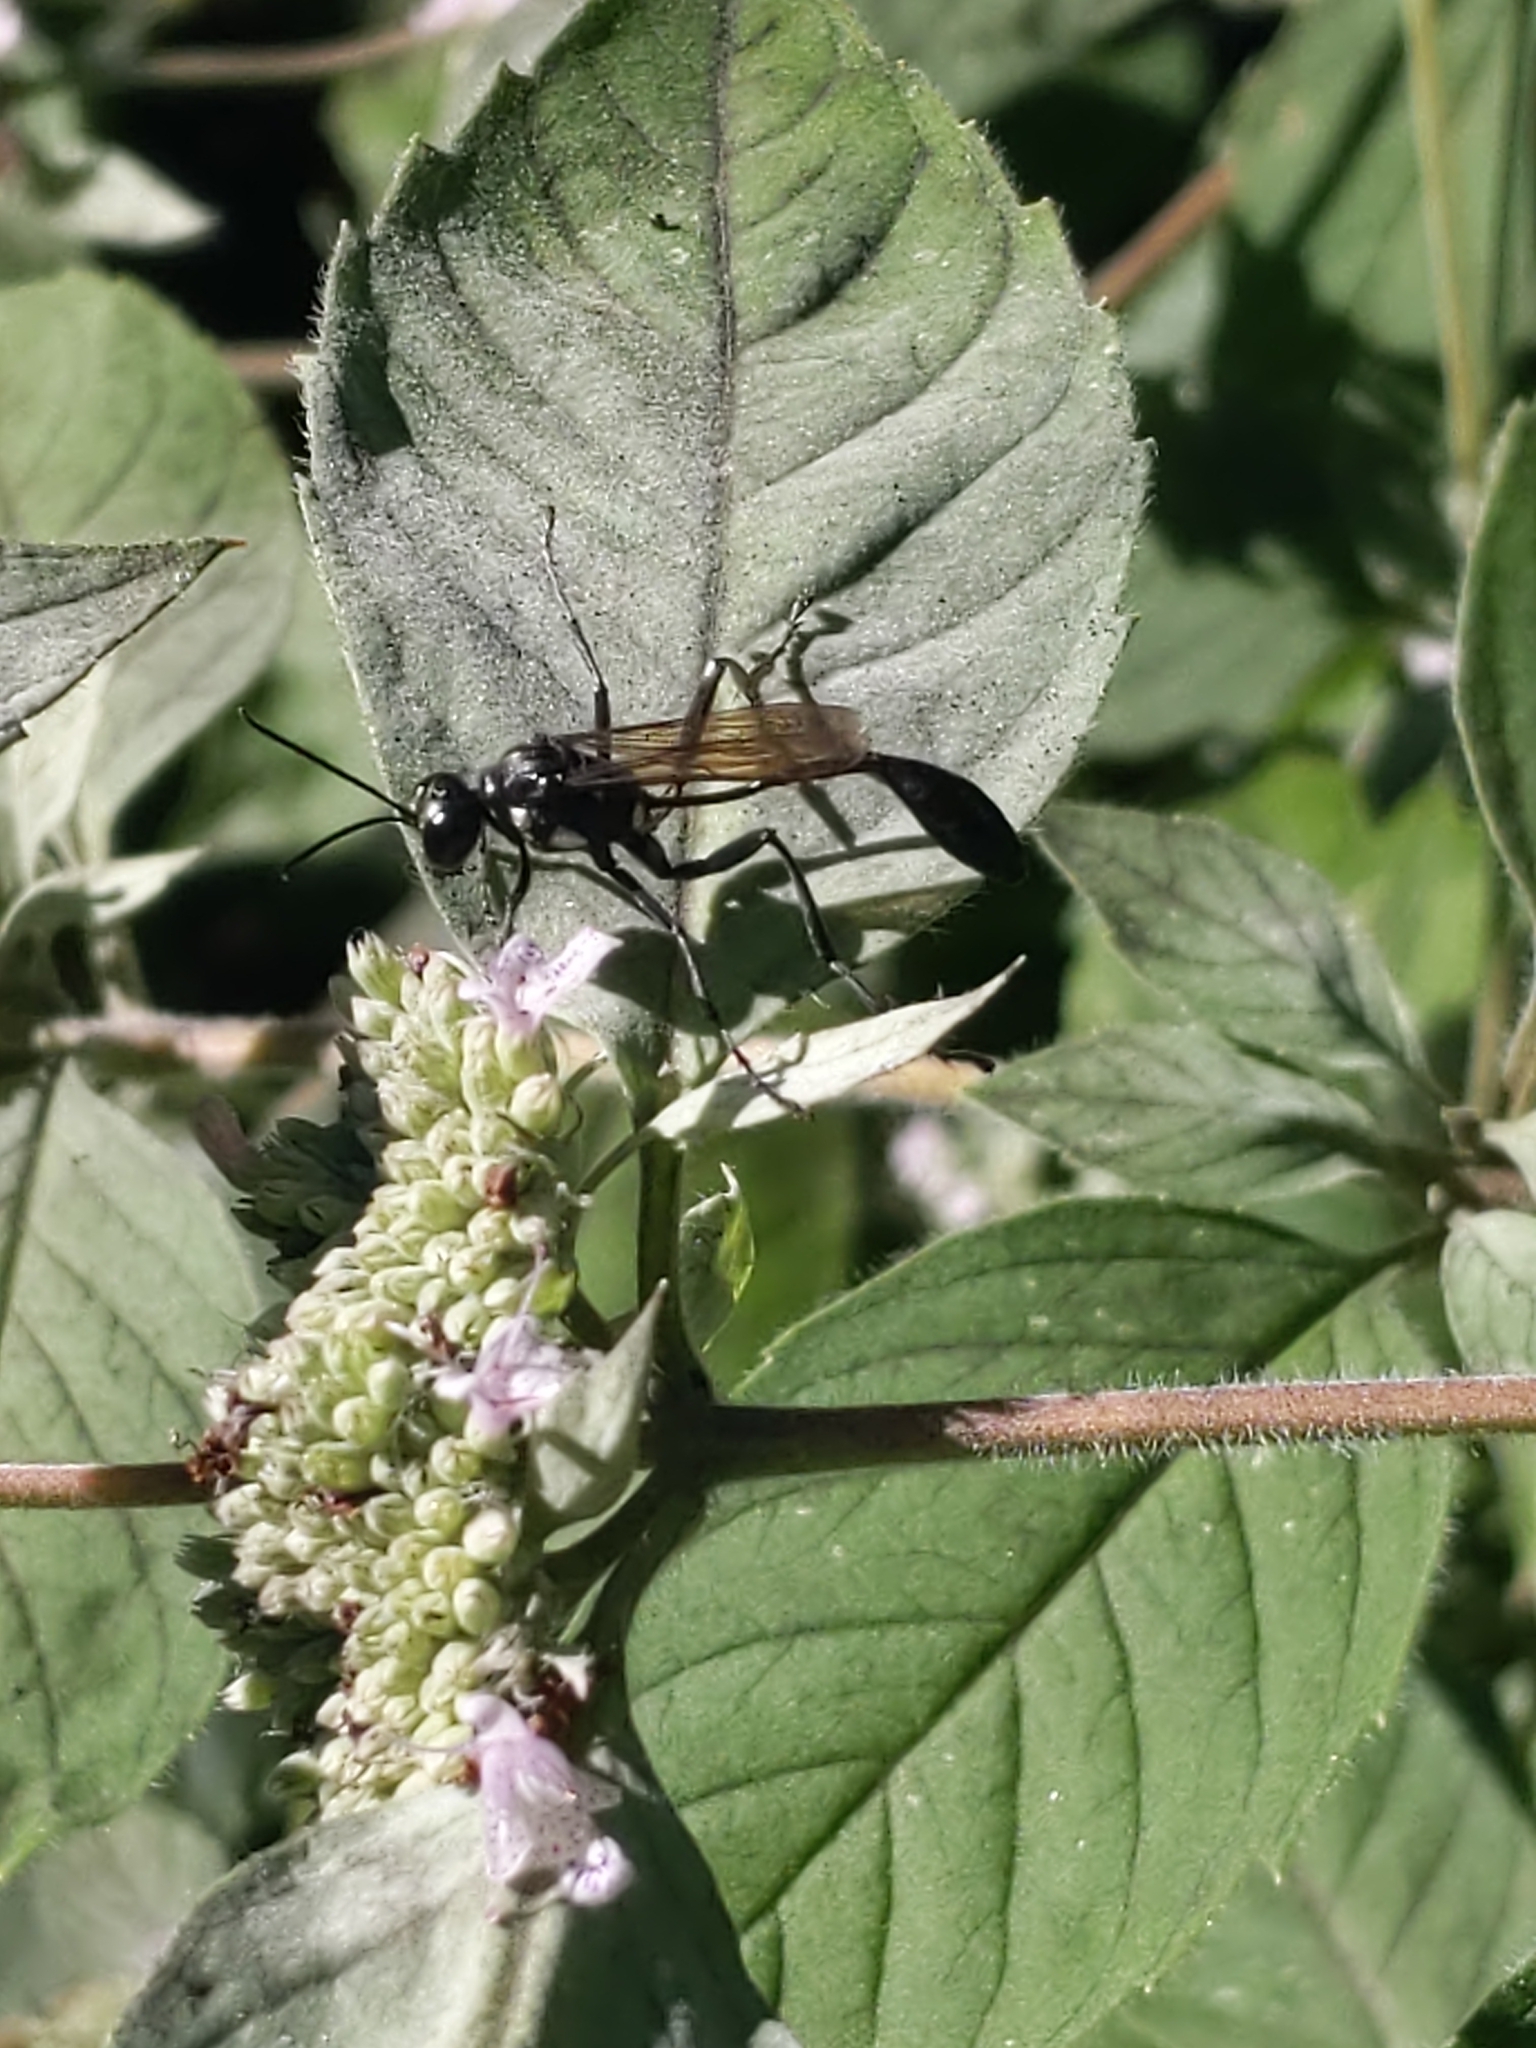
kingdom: Animalia
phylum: Arthropoda
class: Insecta
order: Hymenoptera
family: Sphecidae
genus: Eremnophila
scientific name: Eremnophila aureonotata
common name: Gold-marked thread-waisted wasp
